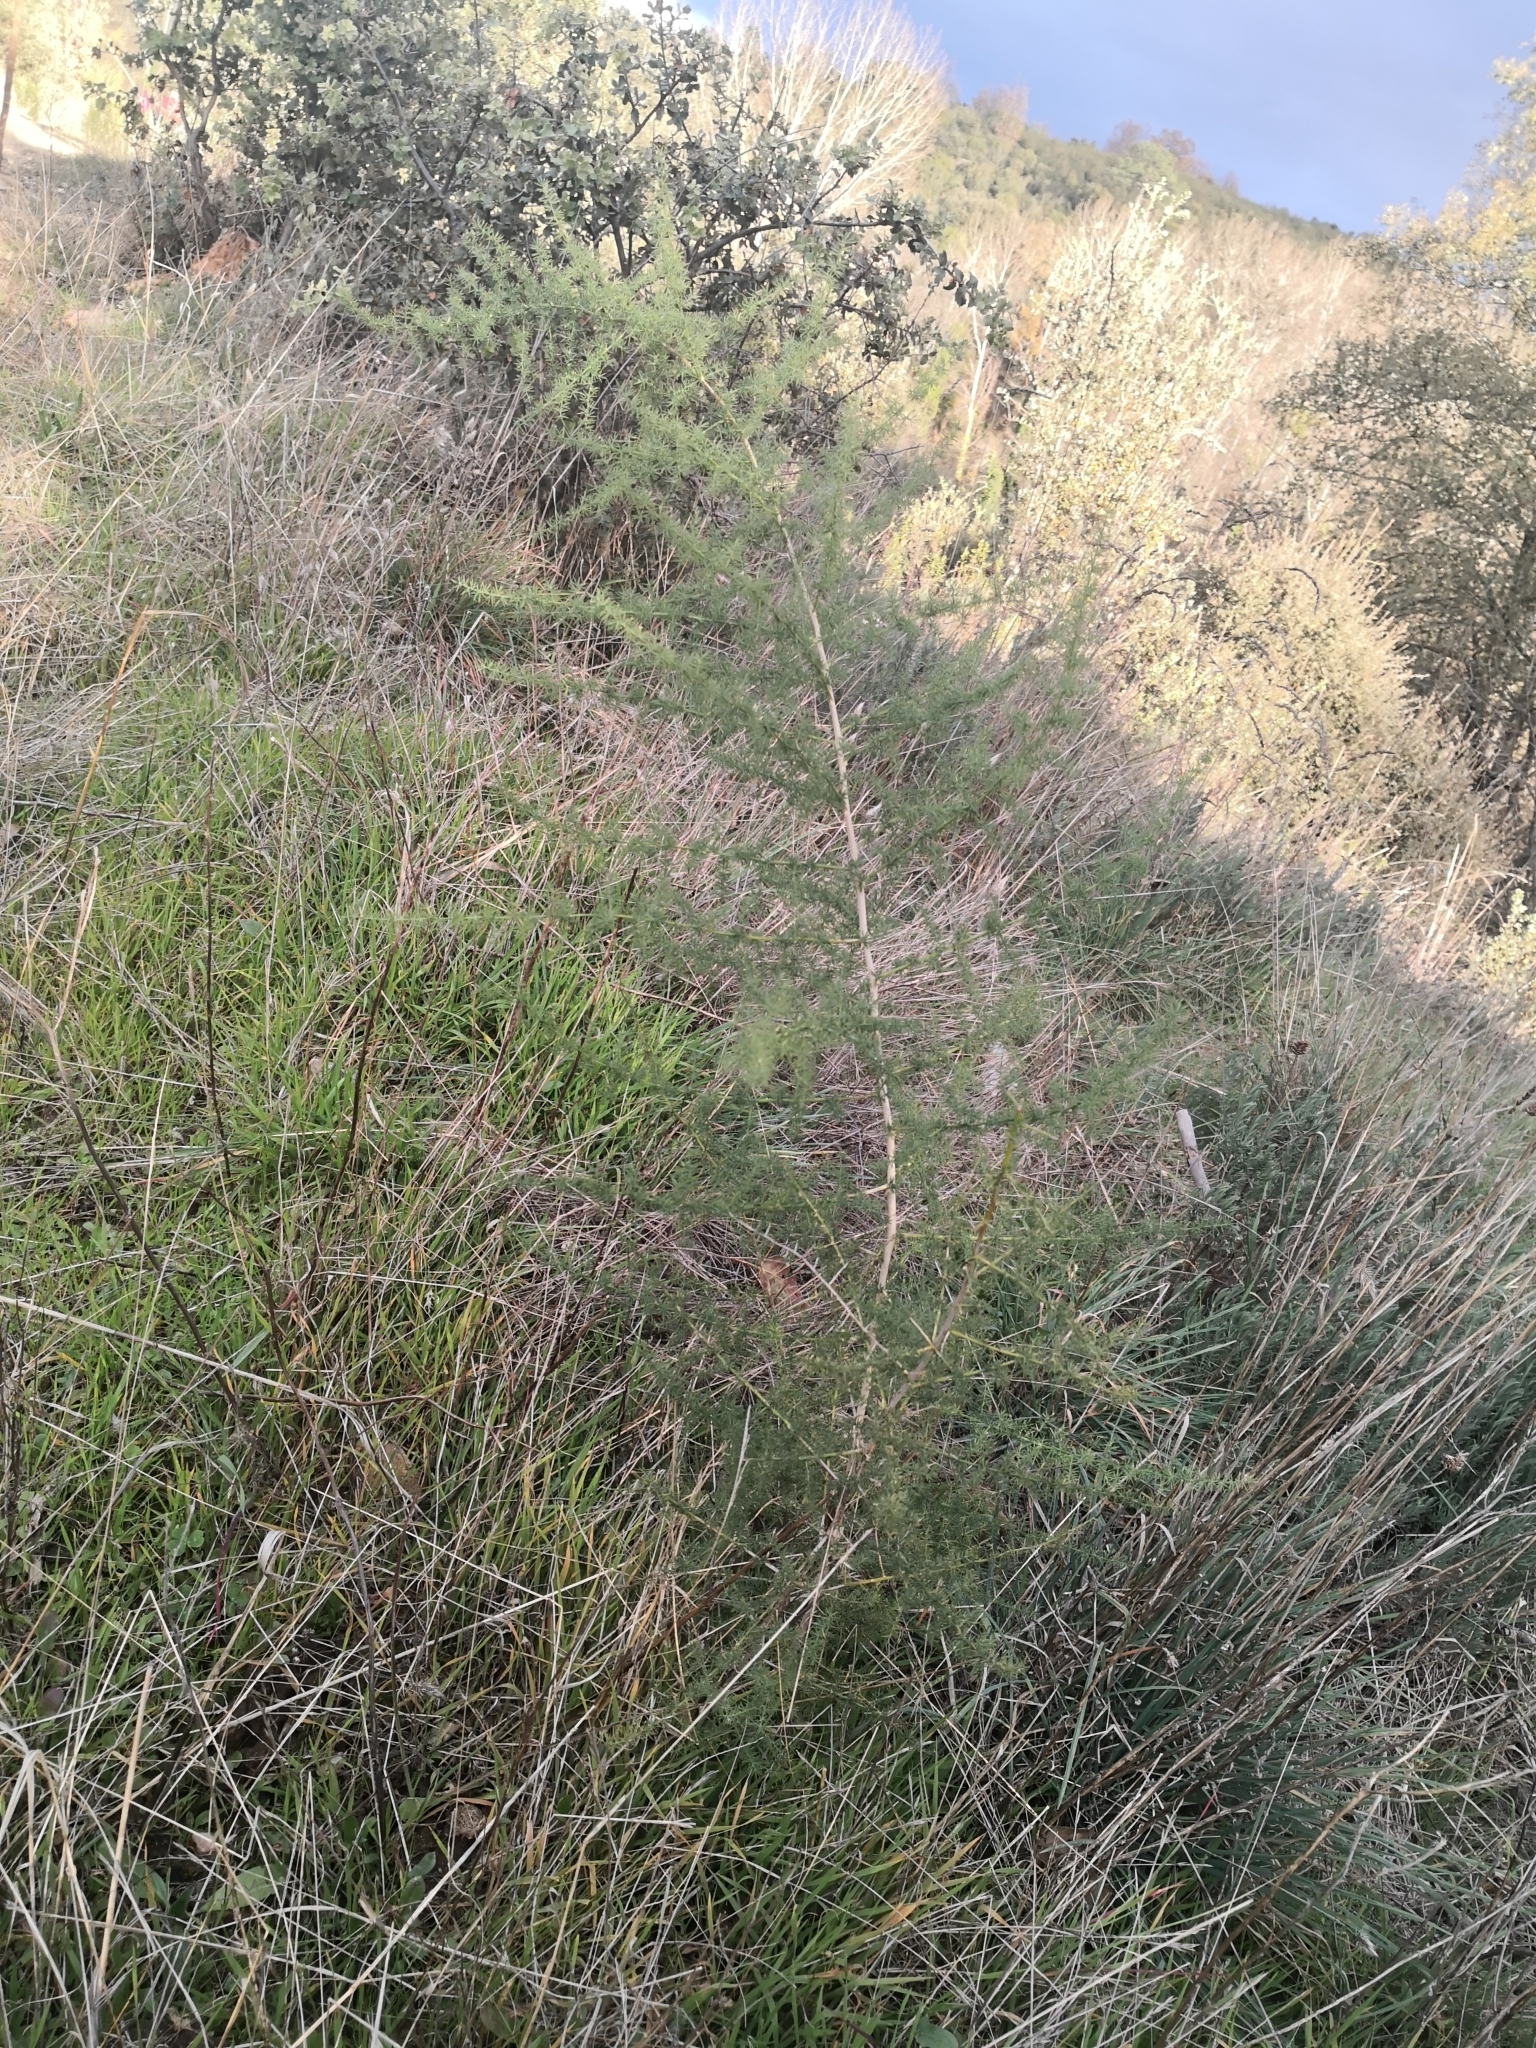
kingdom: Plantae
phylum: Tracheophyta
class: Liliopsida
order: Asparagales
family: Asparagaceae
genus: Asparagus
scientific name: Asparagus acutifolius
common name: Wild asparagus
